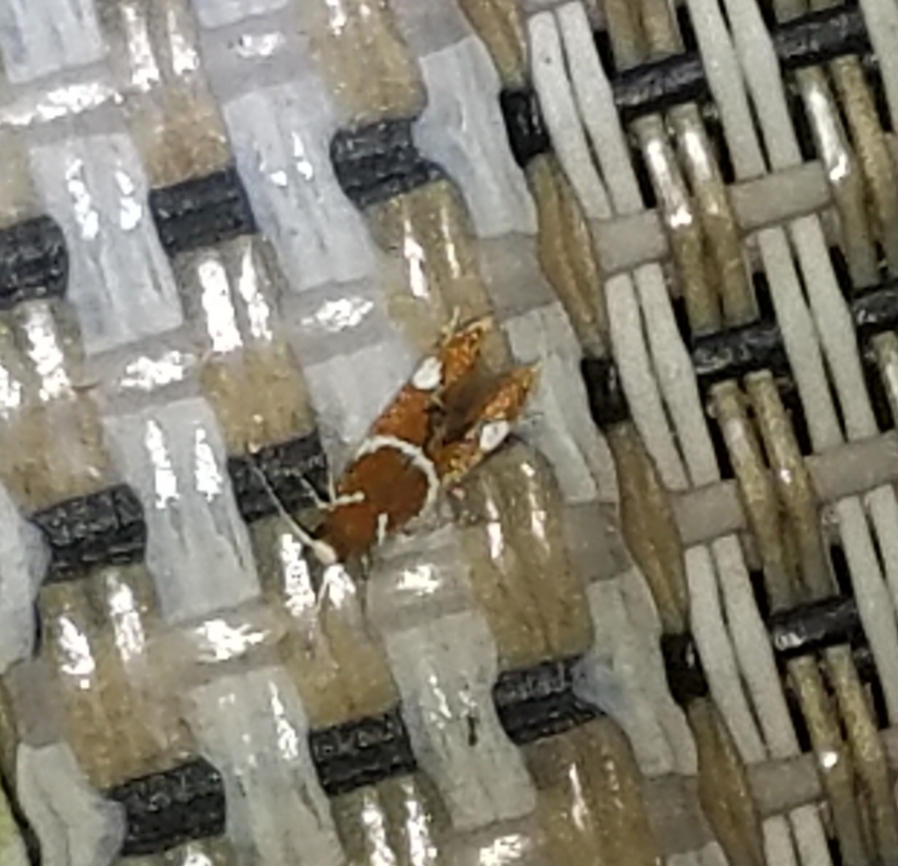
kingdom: Animalia
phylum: Arthropoda
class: Insecta
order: Lepidoptera
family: Oecophoridae
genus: Promalactis
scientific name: Promalactis suzukiella
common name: Moth
